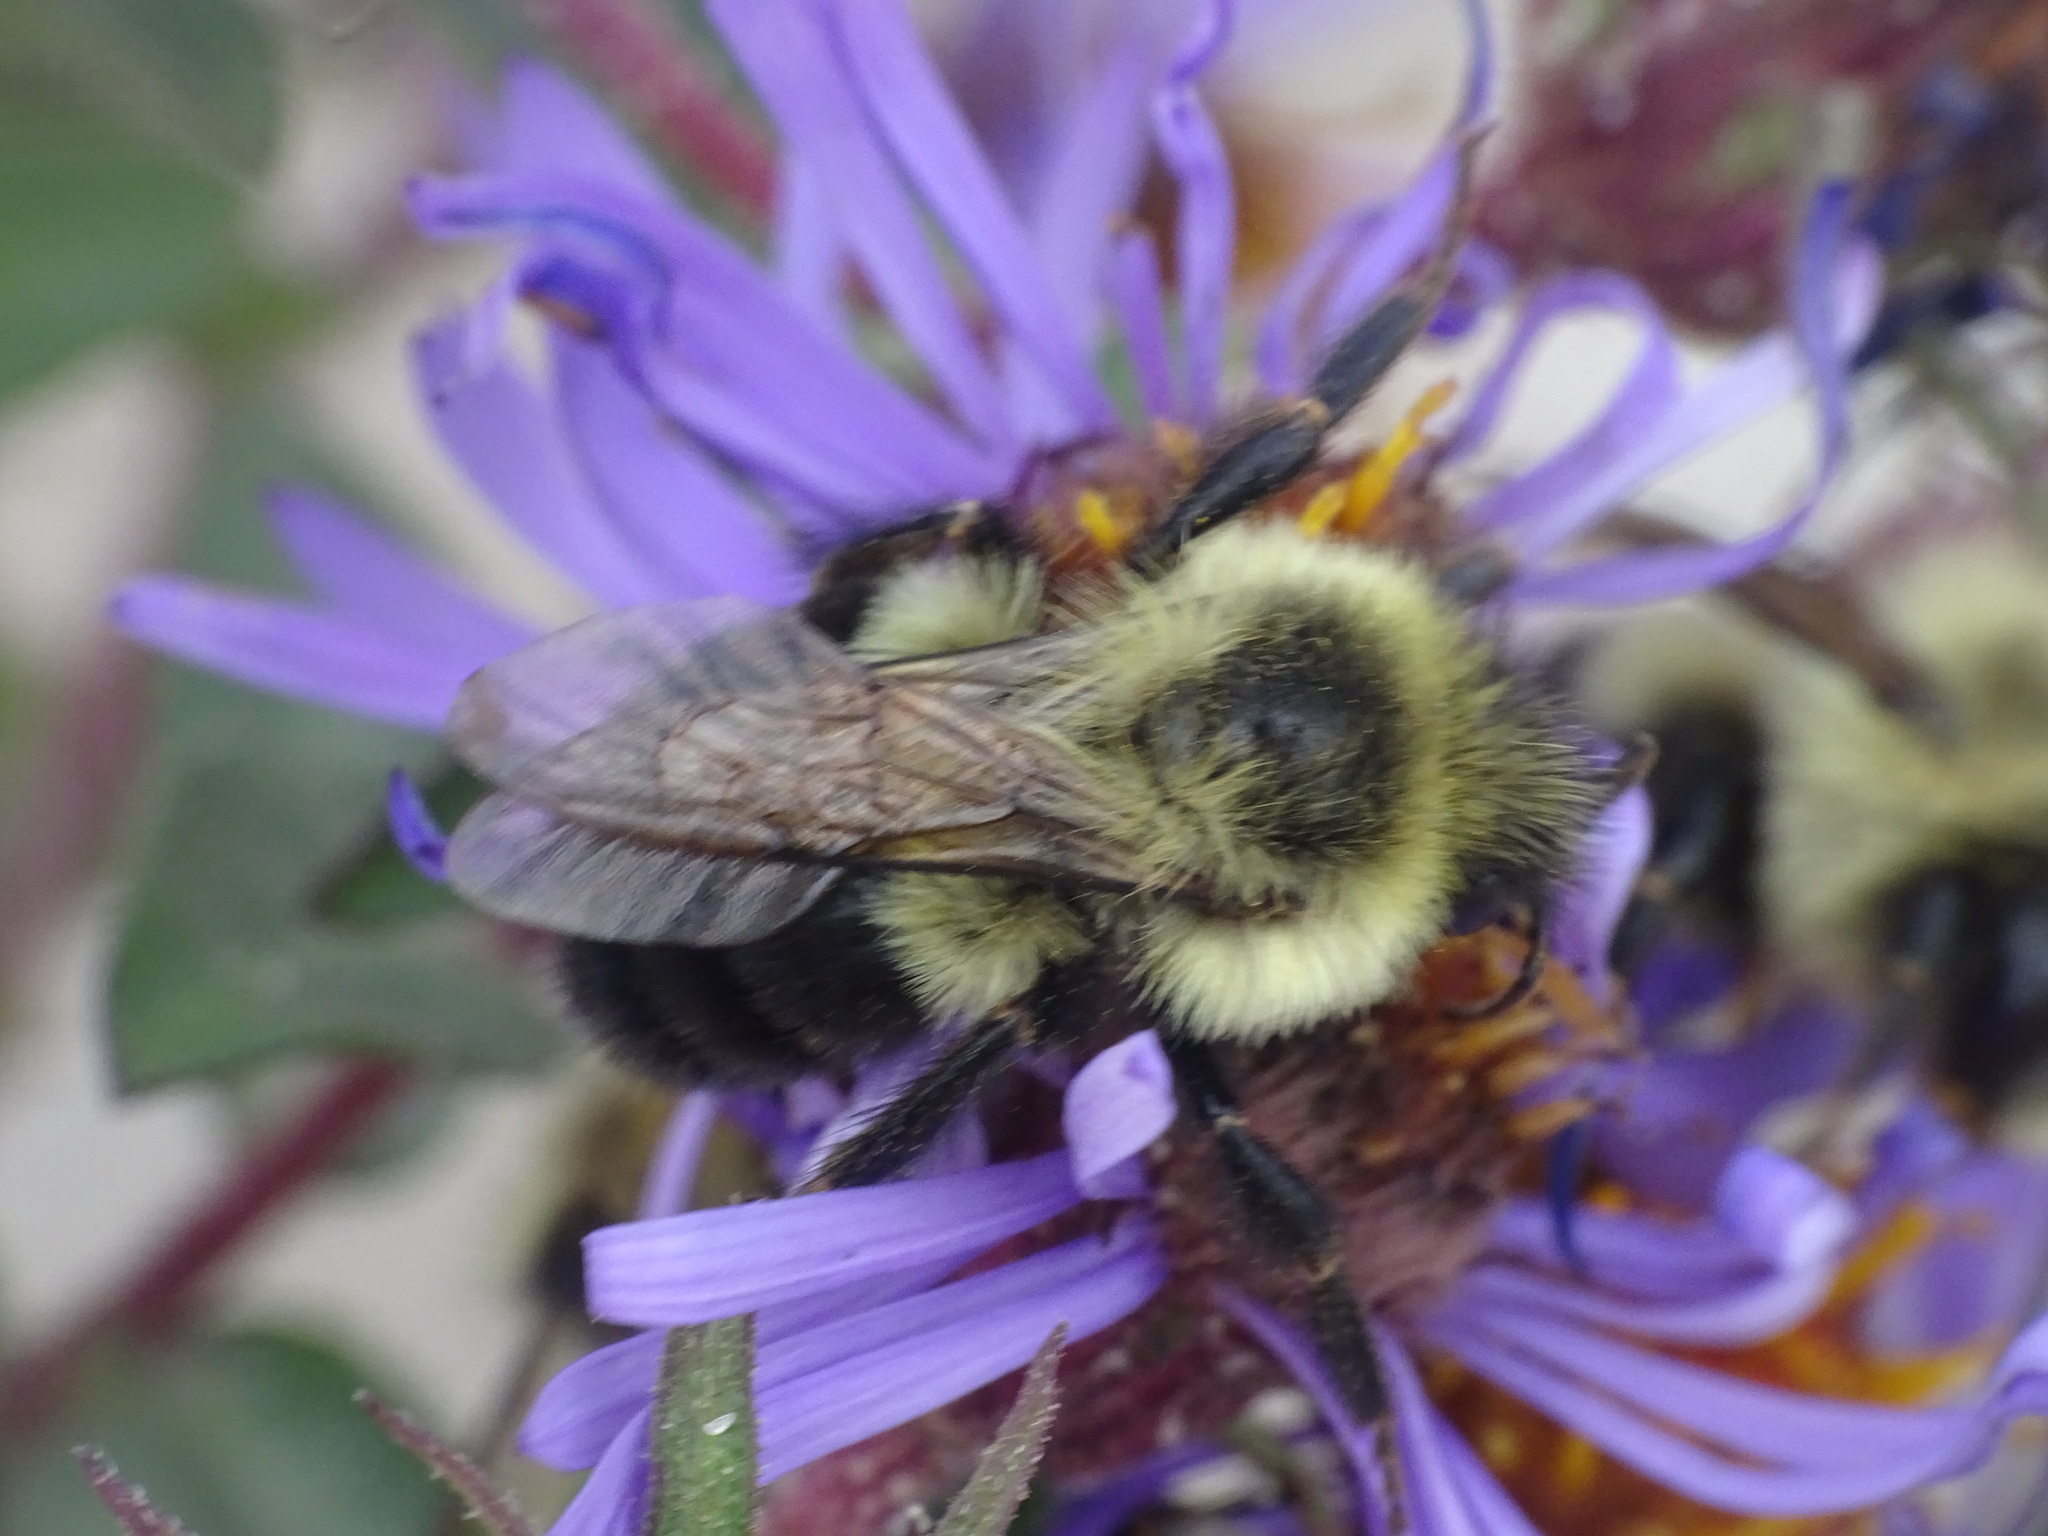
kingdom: Animalia
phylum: Arthropoda
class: Insecta
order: Hymenoptera
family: Apidae
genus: Bombus
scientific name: Bombus impatiens
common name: Common eastern bumble bee
